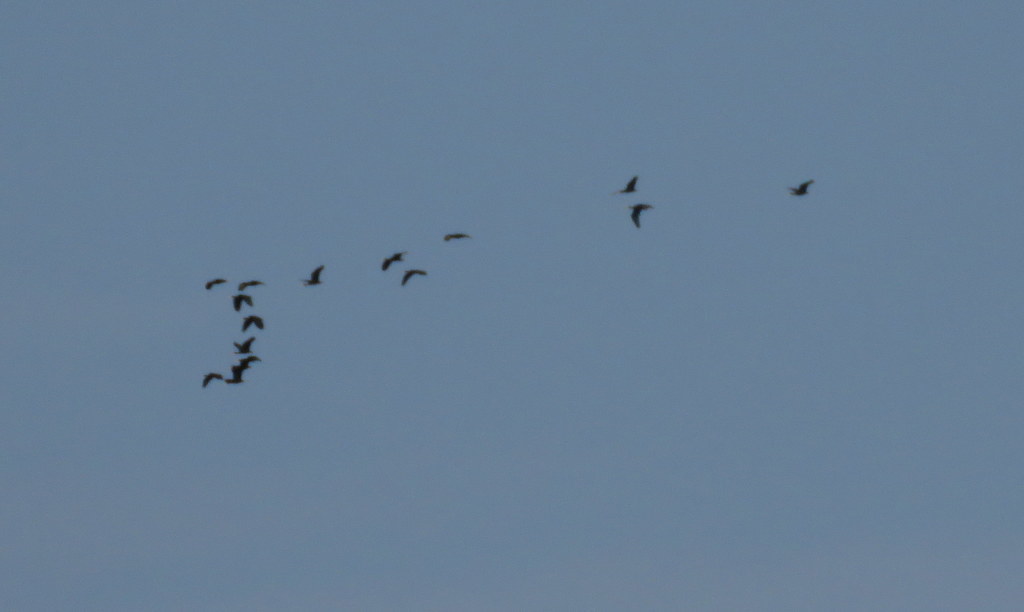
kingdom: Animalia
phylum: Chordata
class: Aves
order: Pelecaniformes
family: Threskiornithidae
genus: Phimosus
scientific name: Phimosus infuscatus
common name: Bare-faced ibis
